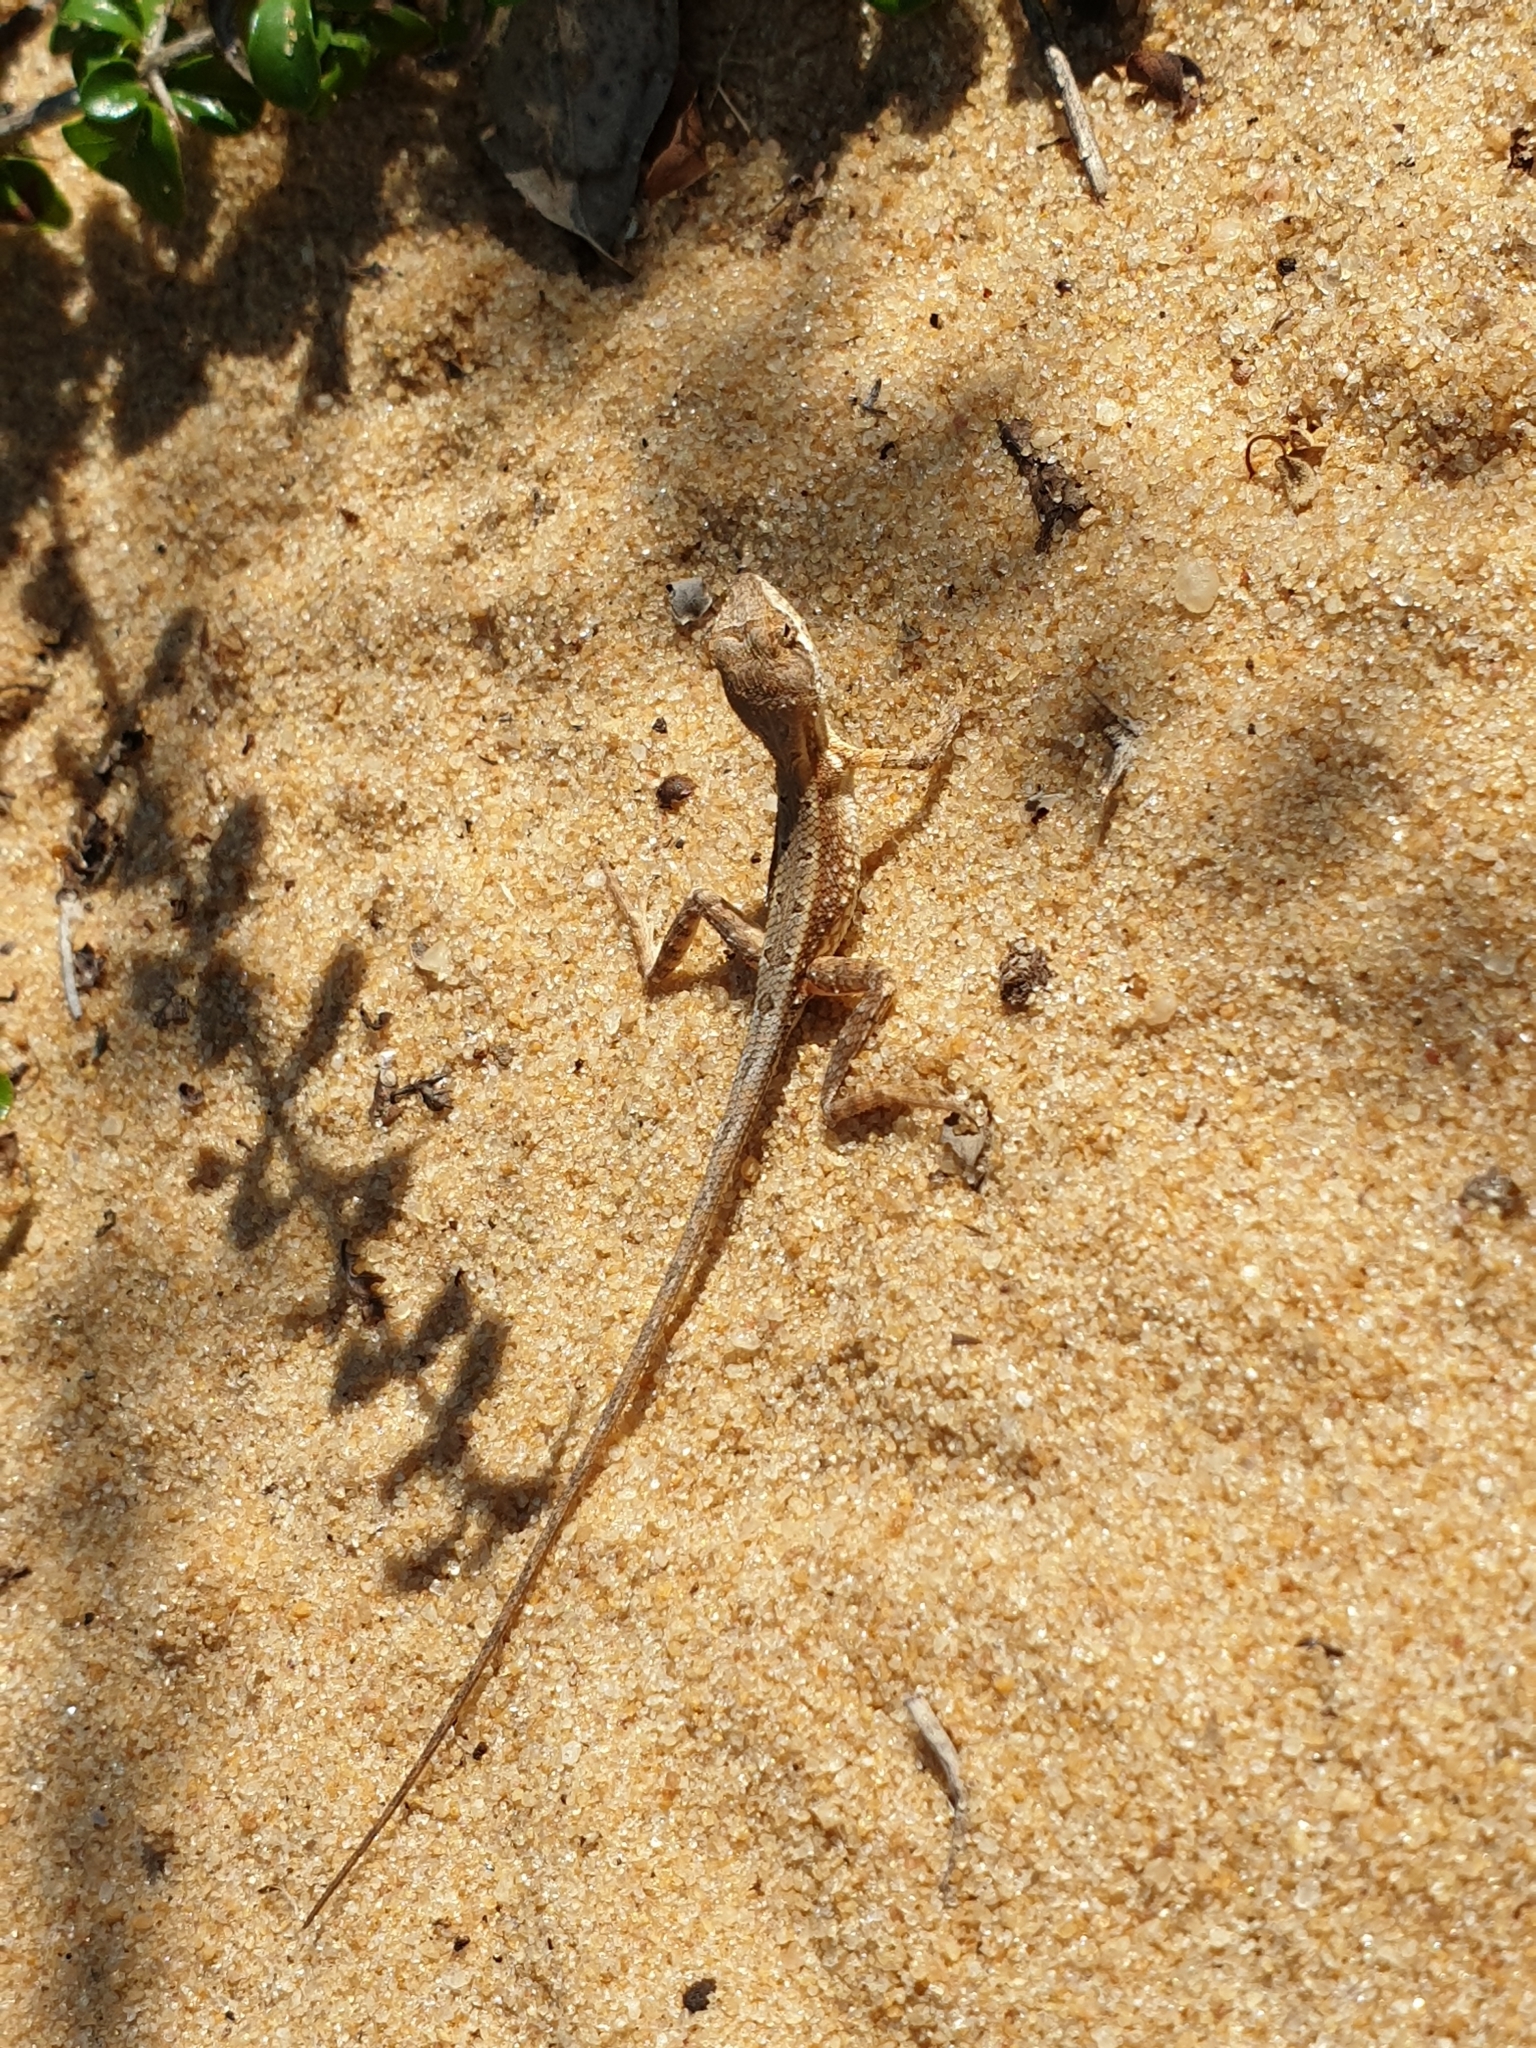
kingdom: Animalia
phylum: Chordata
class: Squamata
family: Agamidae
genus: Sitana
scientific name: Sitana devakai
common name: Devaka’s fan-throated lizard
